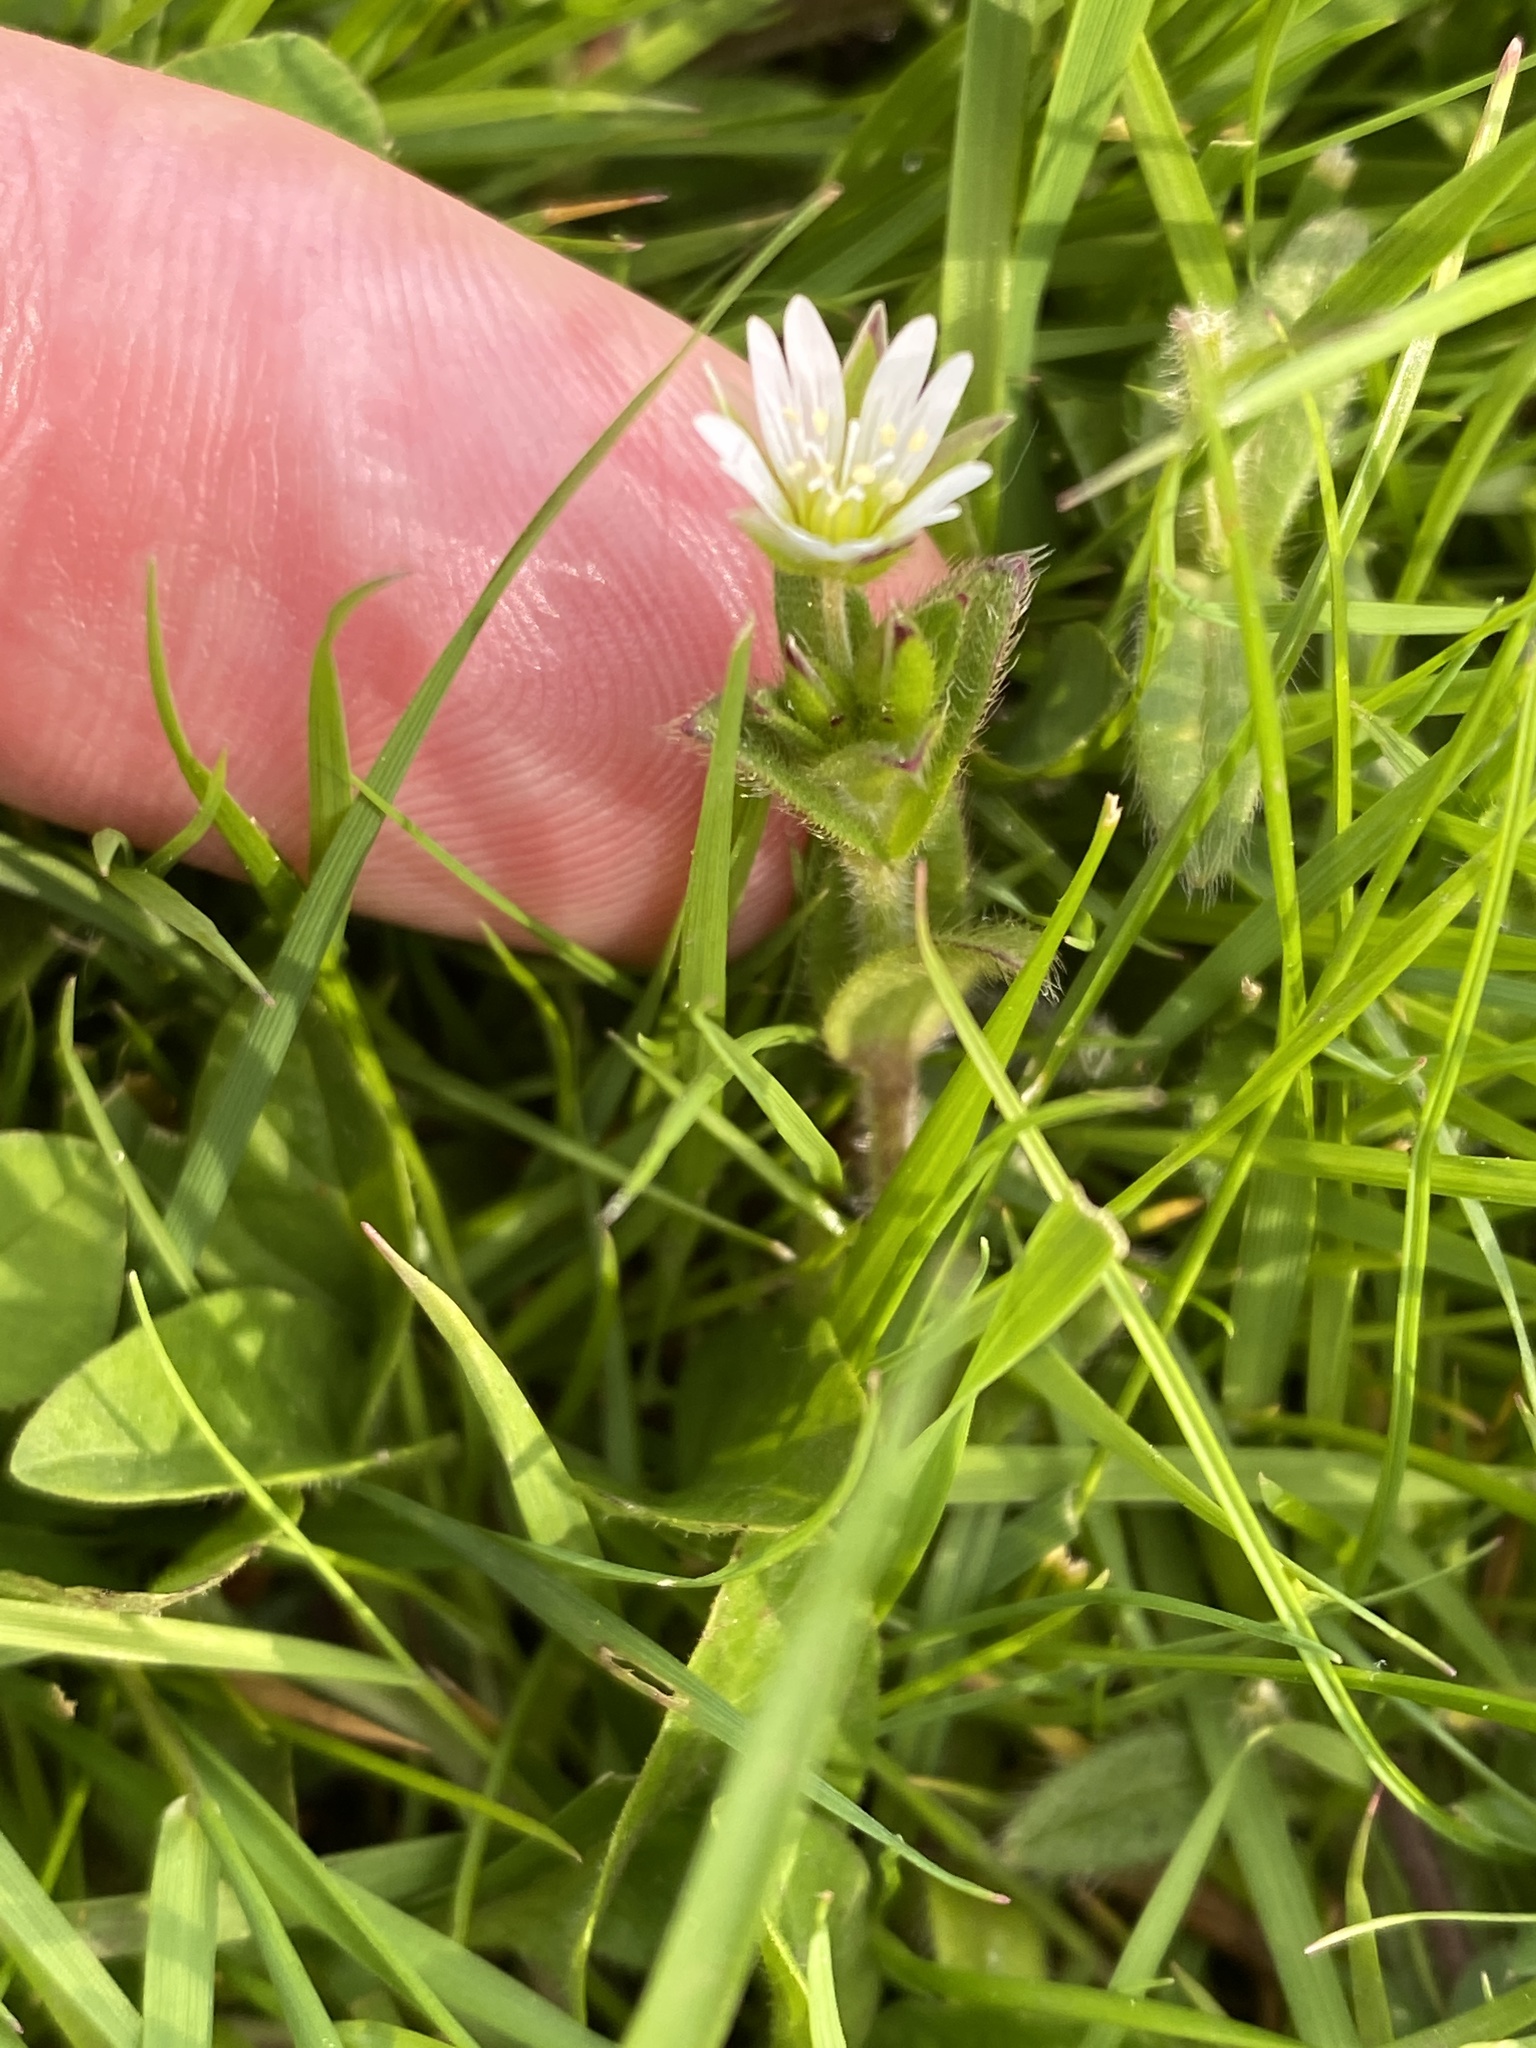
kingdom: Plantae
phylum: Tracheophyta
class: Magnoliopsida
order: Caryophyllales
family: Caryophyllaceae
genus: Cerastium
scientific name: Cerastium fontanum
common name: Common mouse-ear
